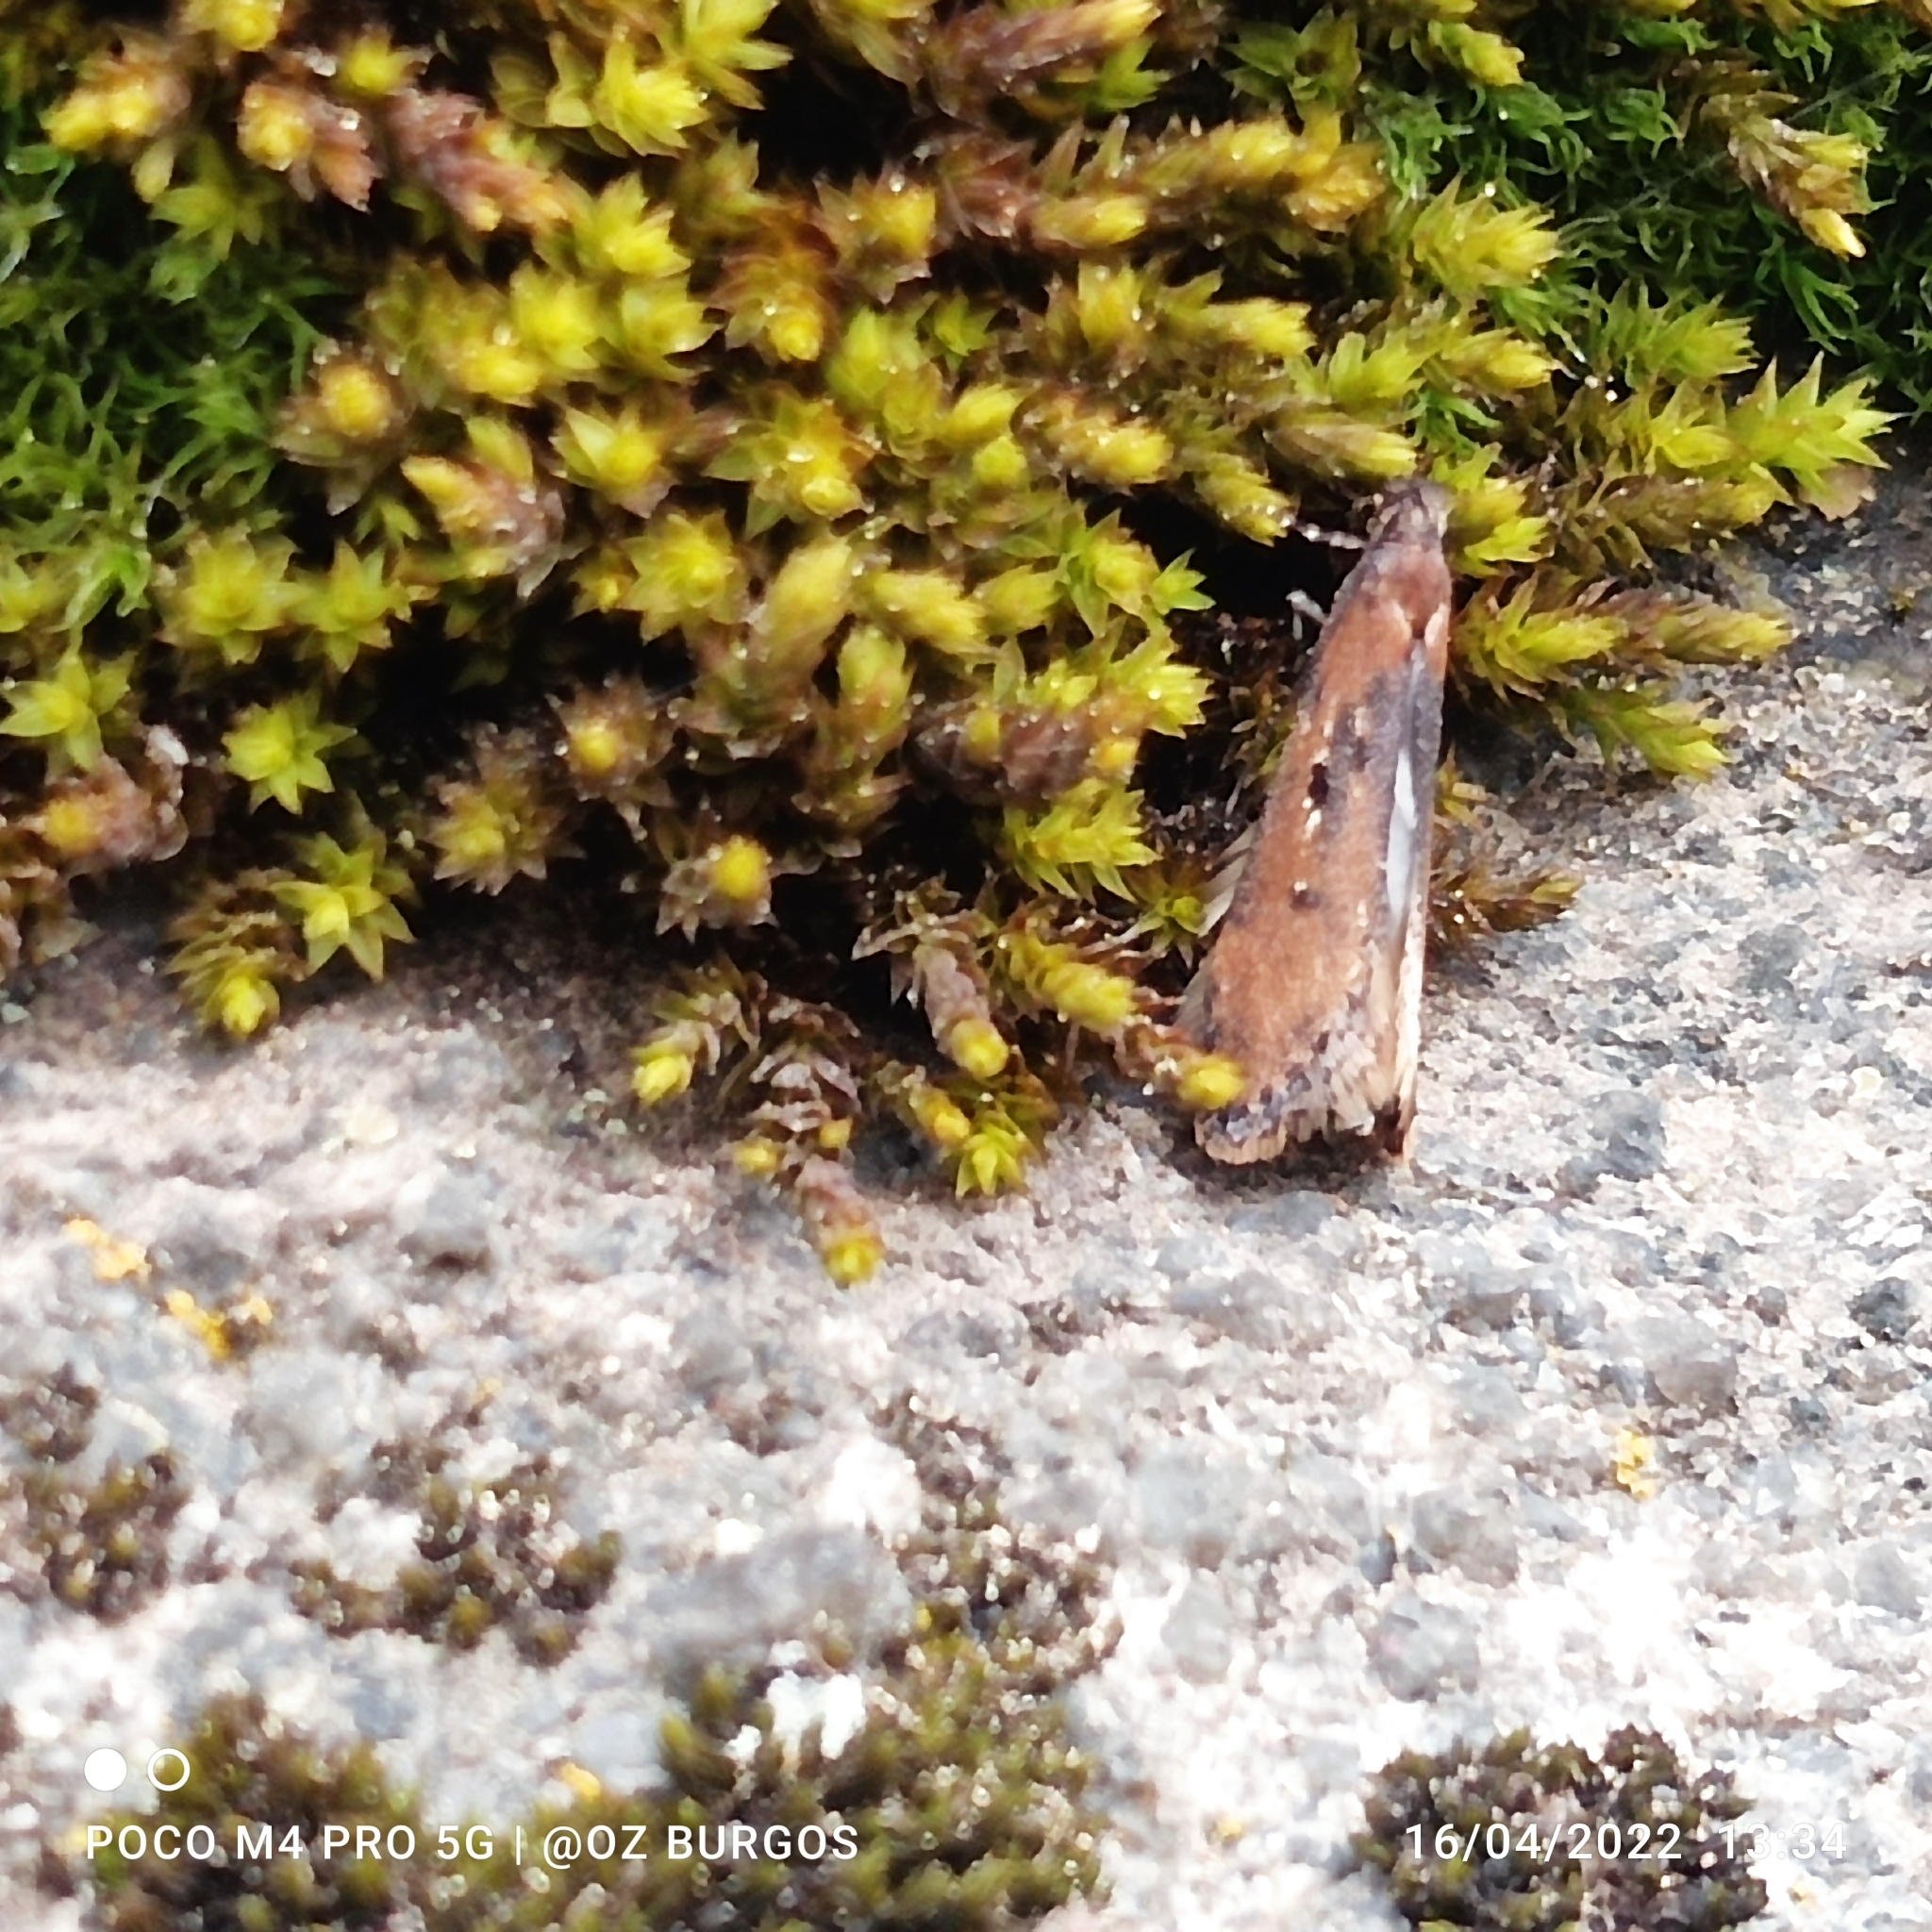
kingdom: Animalia
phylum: Arthropoda
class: Insecta
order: Lepidoptera
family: Pyralidae
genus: Elasmopalpus
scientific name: Elasmopalpus lignosella
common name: Lesser cornstalk borer
